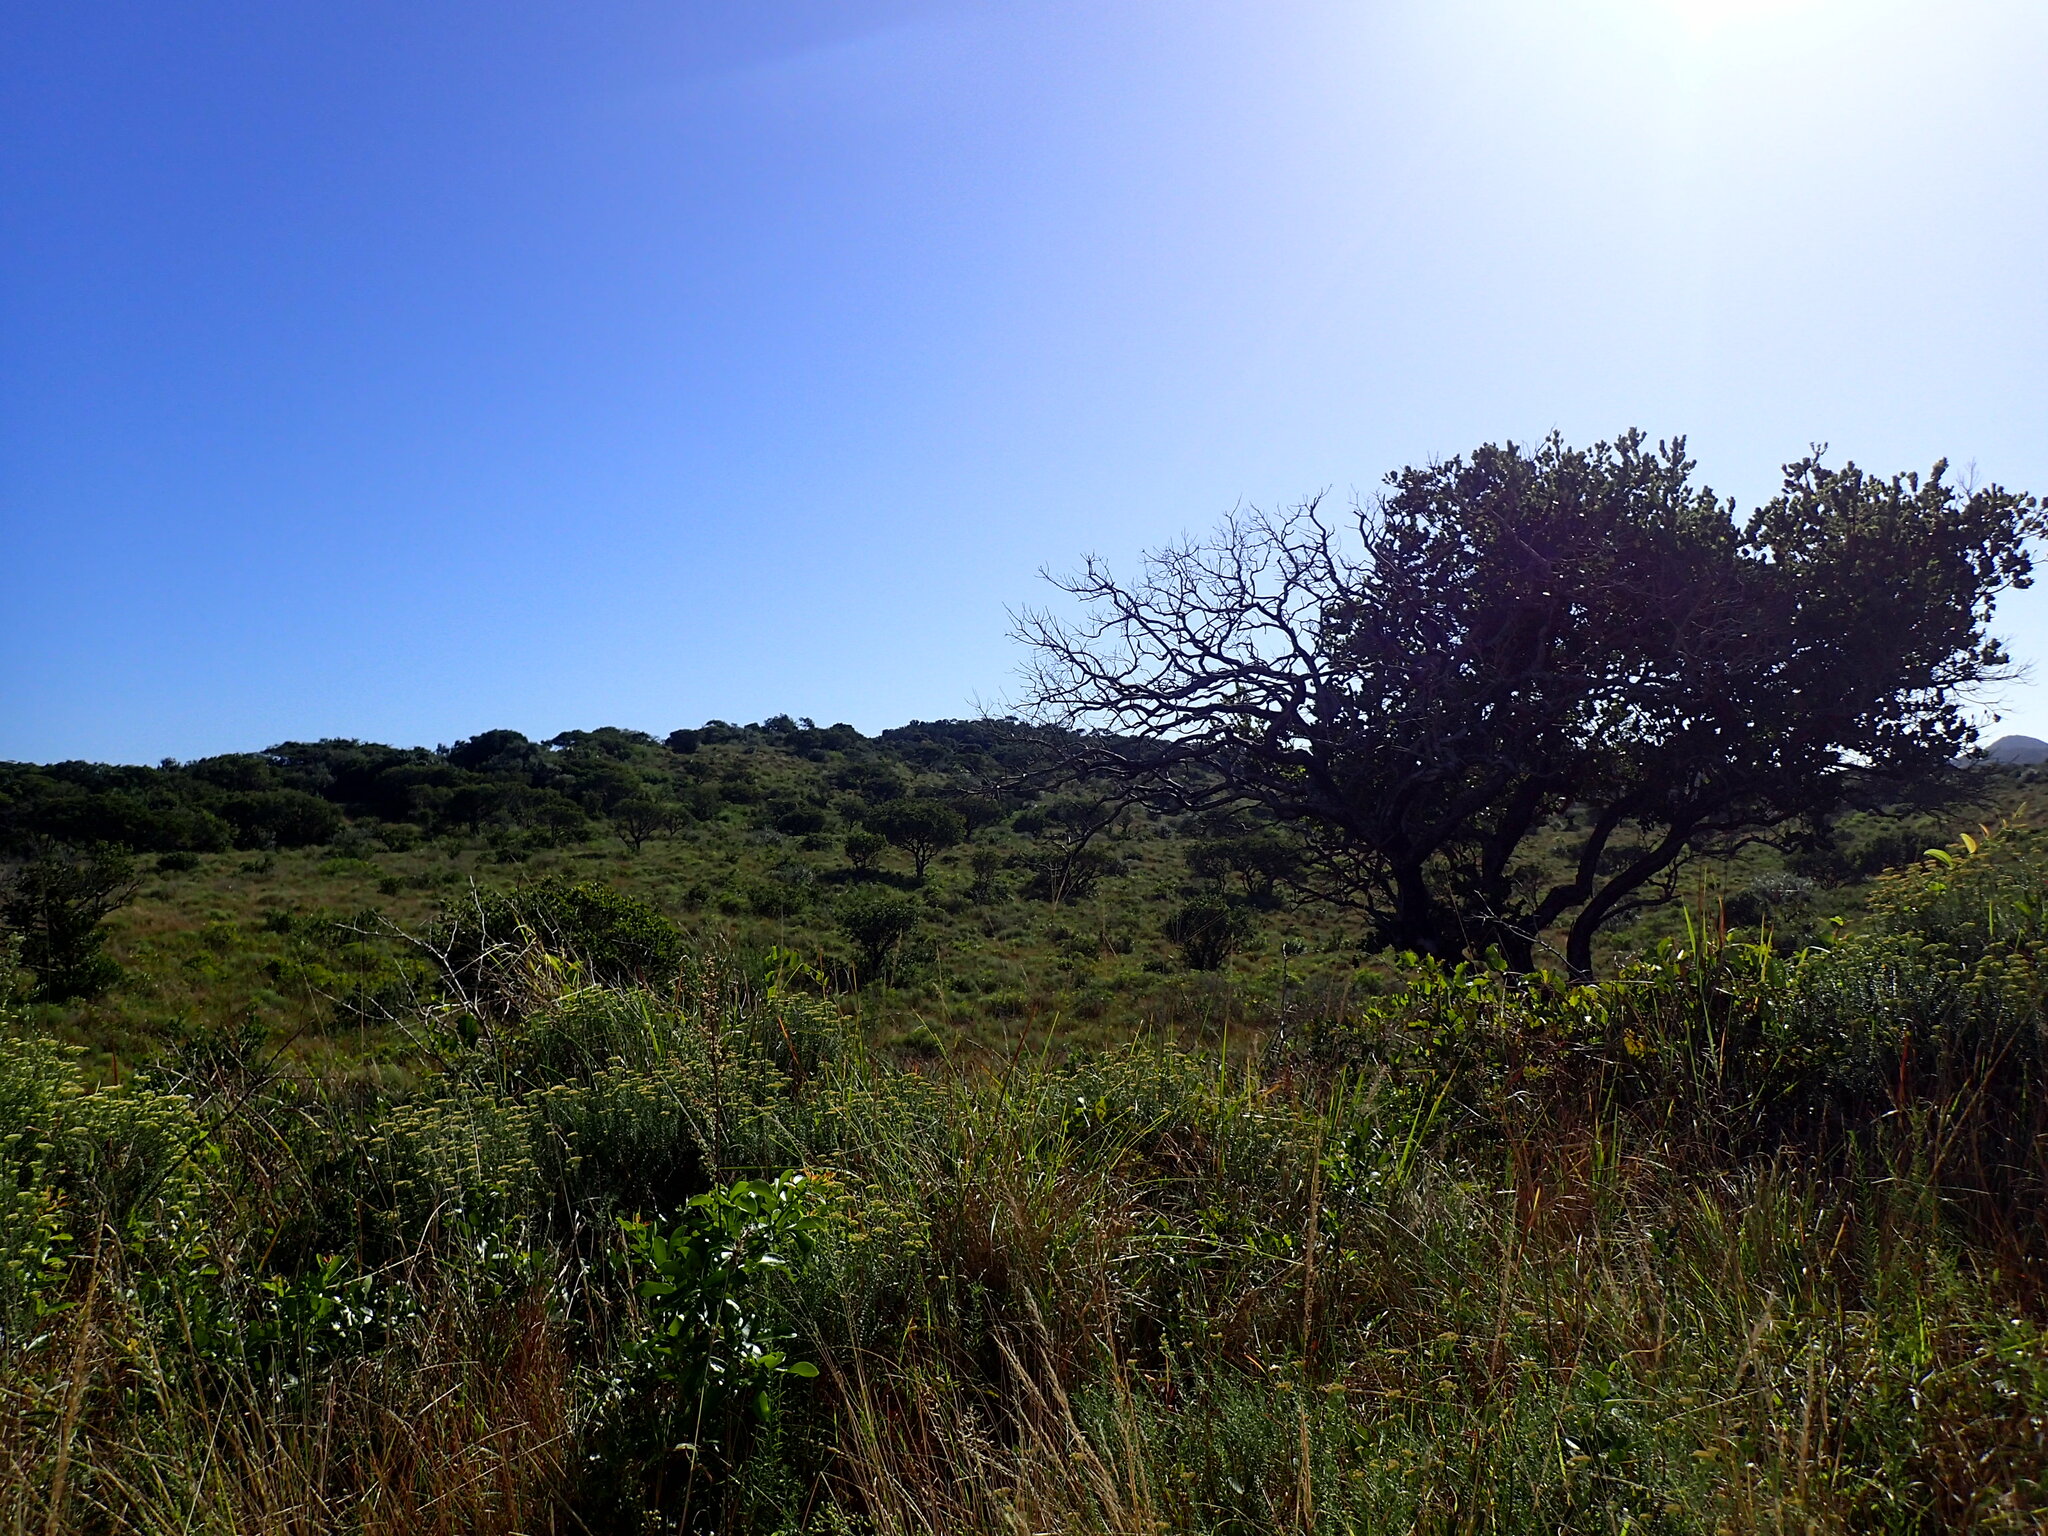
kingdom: Plantae
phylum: Tracheophyta
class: Magnoliopsida
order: Myrtales
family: Myrtaceae
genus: Syzygium
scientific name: Syzygium cordatum
